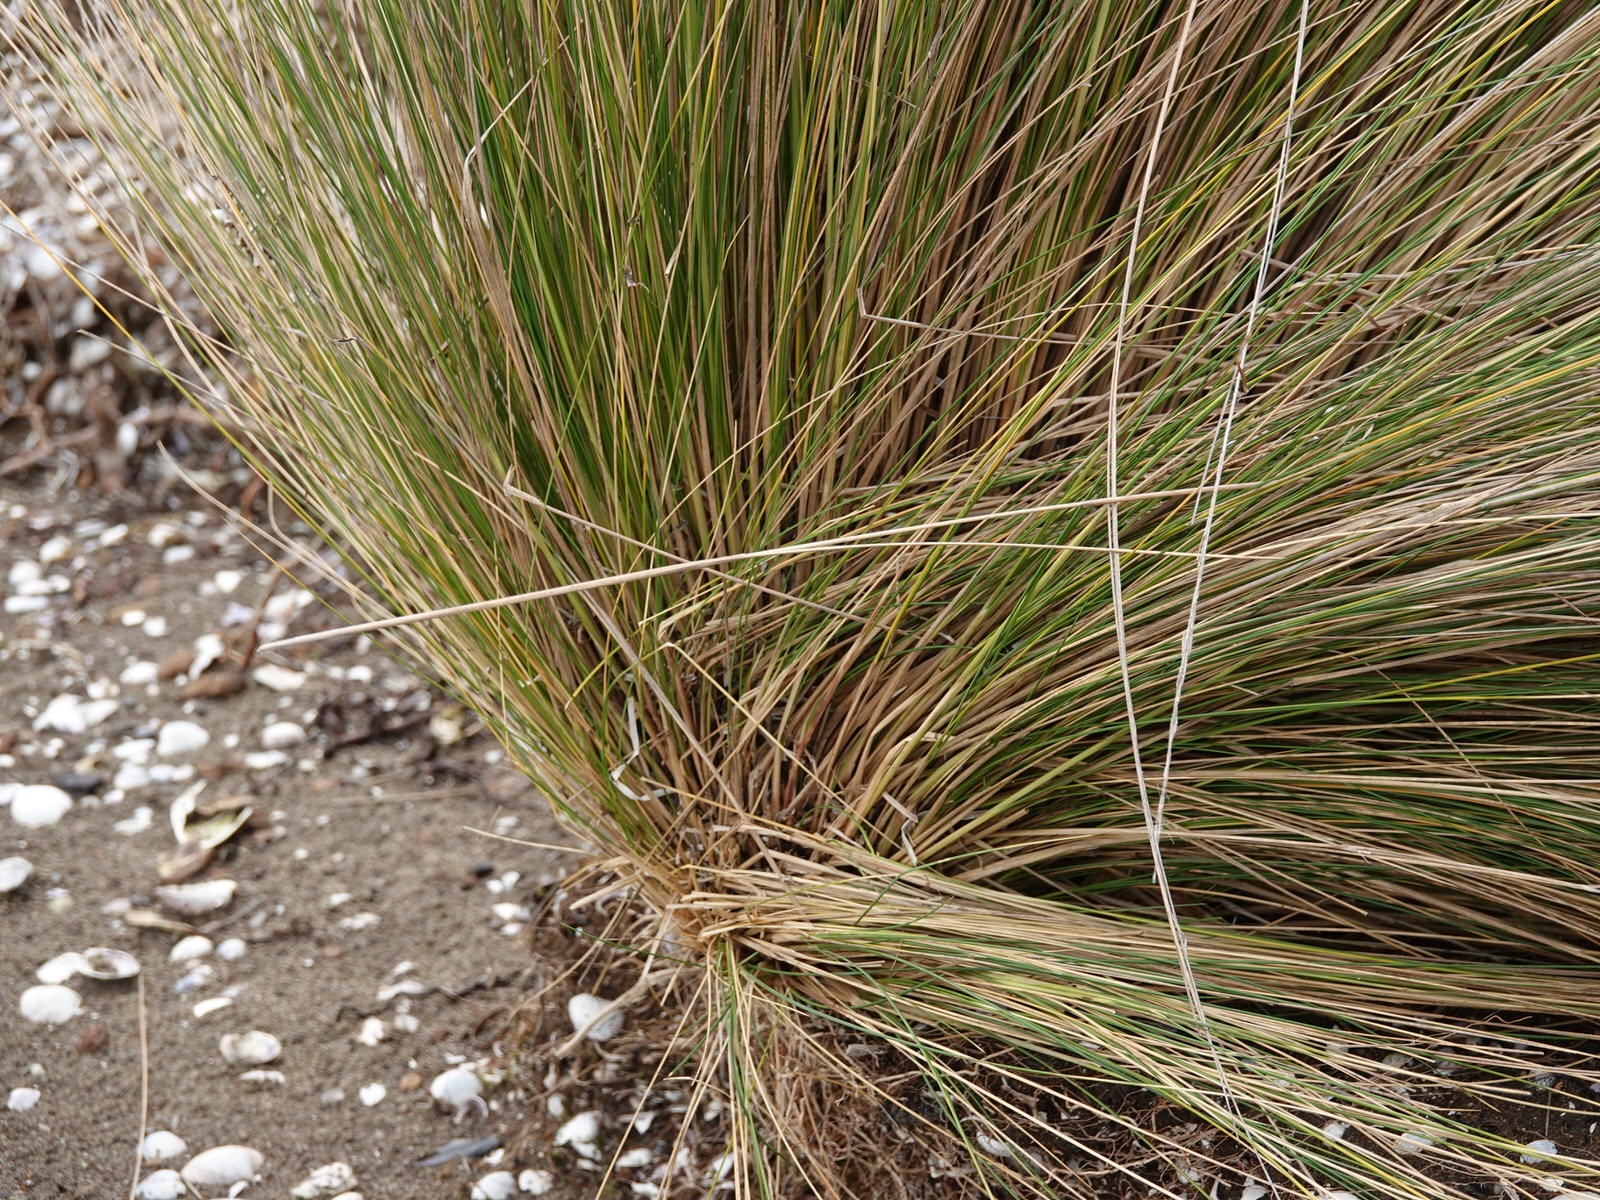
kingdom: Plantae
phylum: Tracheophyta
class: Liliopsida
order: Poales
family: Poaceae
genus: Austrostipa
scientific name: Austrostipa stipoides
